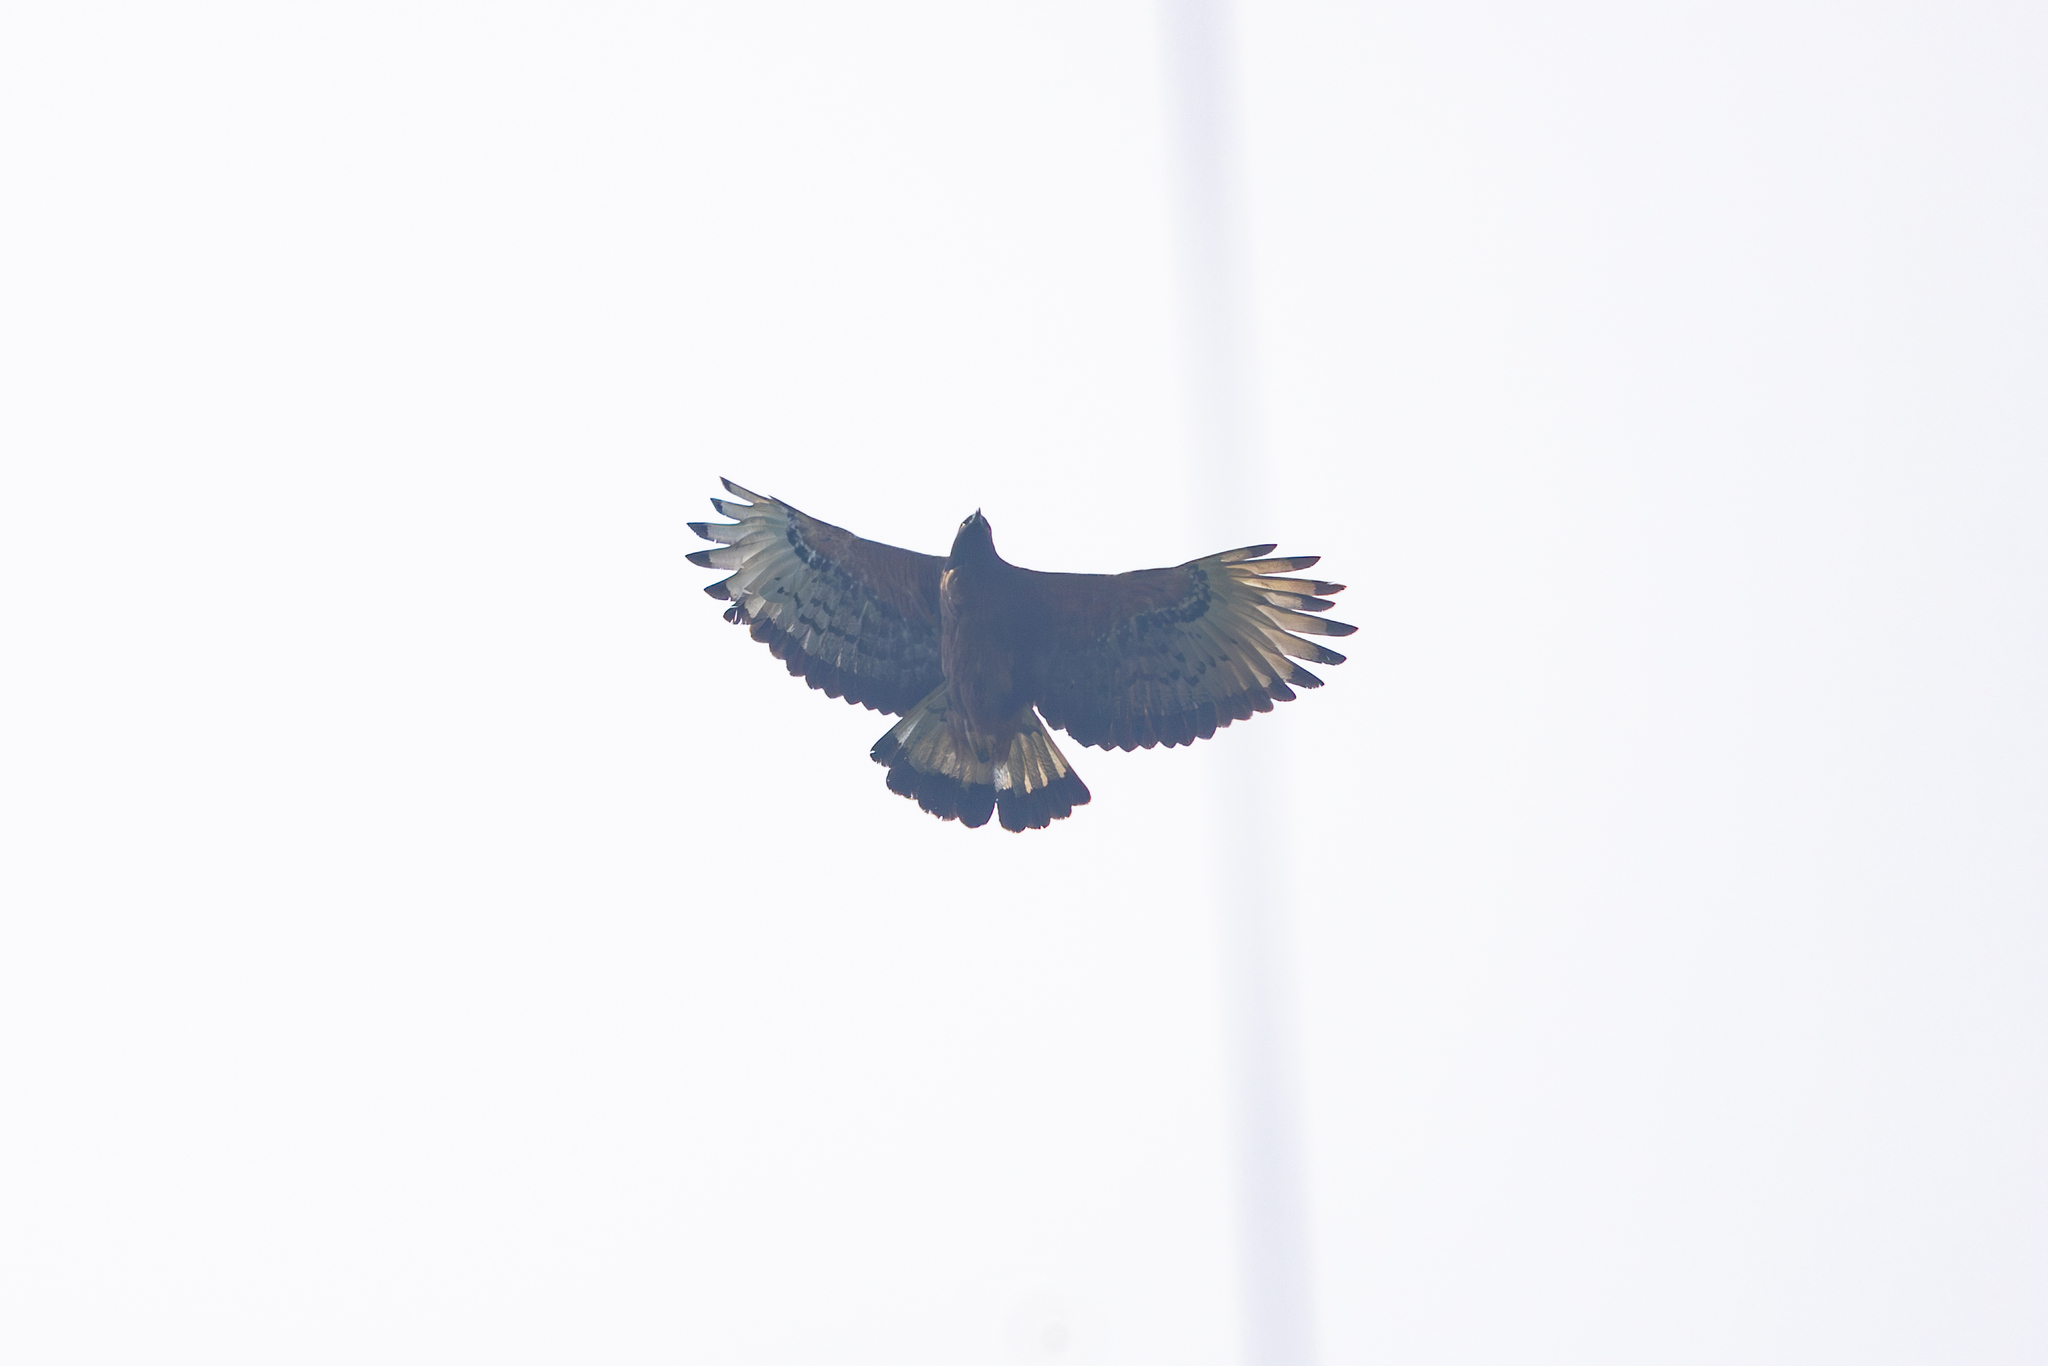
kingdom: Animalia
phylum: Chordata
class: Aves
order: Accipitriformes
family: Accipitridae
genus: Spizaetus
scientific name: Spizaetus isidori
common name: Black-and-chestnut eagle
